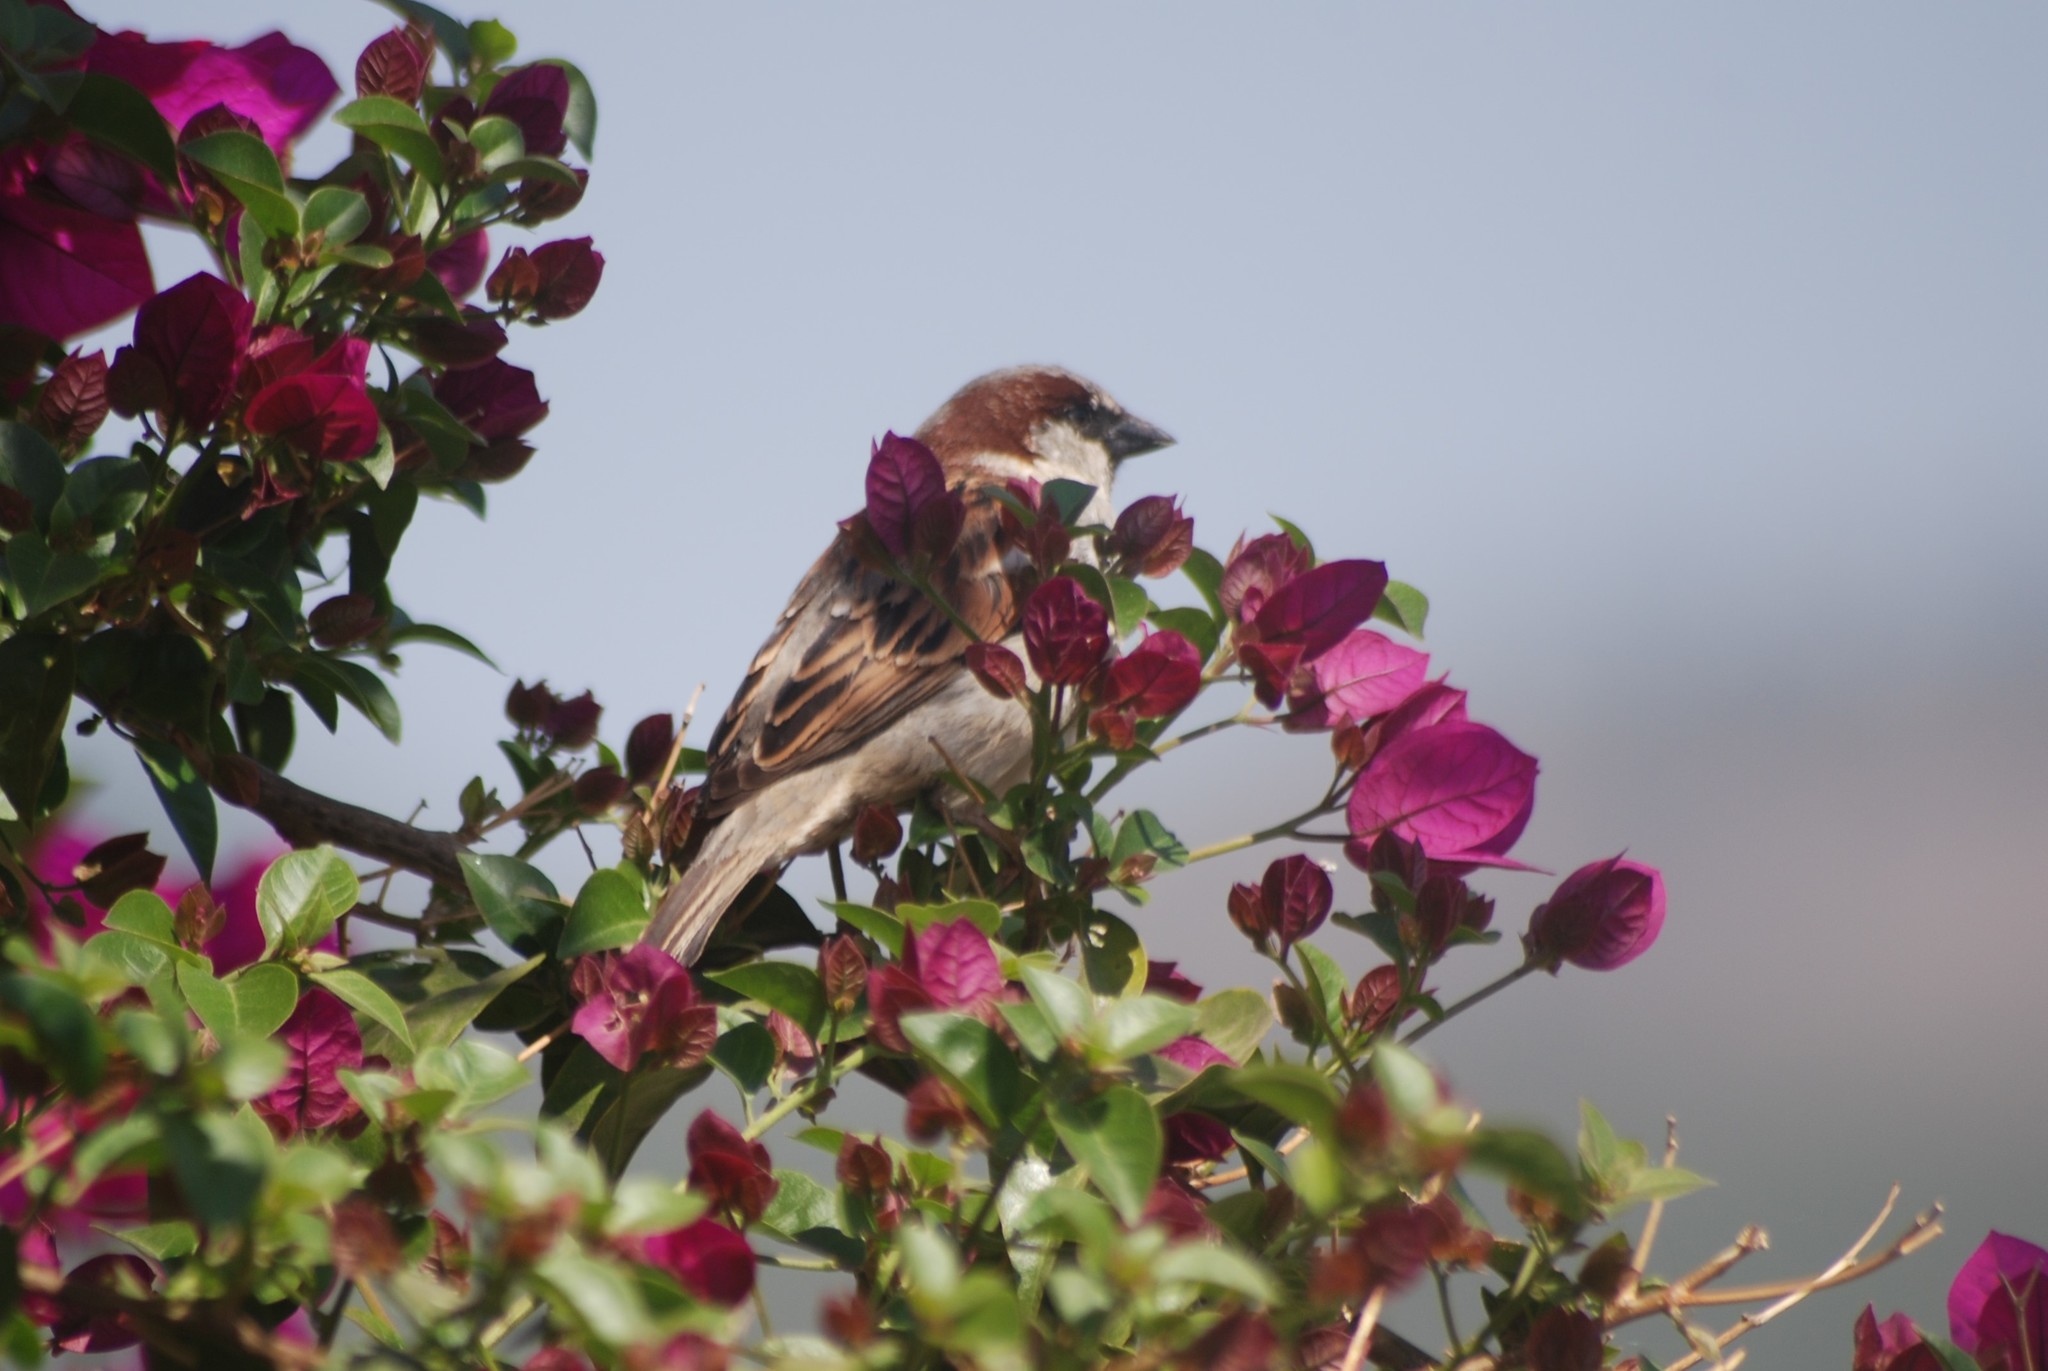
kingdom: Animalia
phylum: Chordata
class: Aves
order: Passeriformes
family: Passeridae
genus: Passer
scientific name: Passer domesticus
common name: House sparrow
